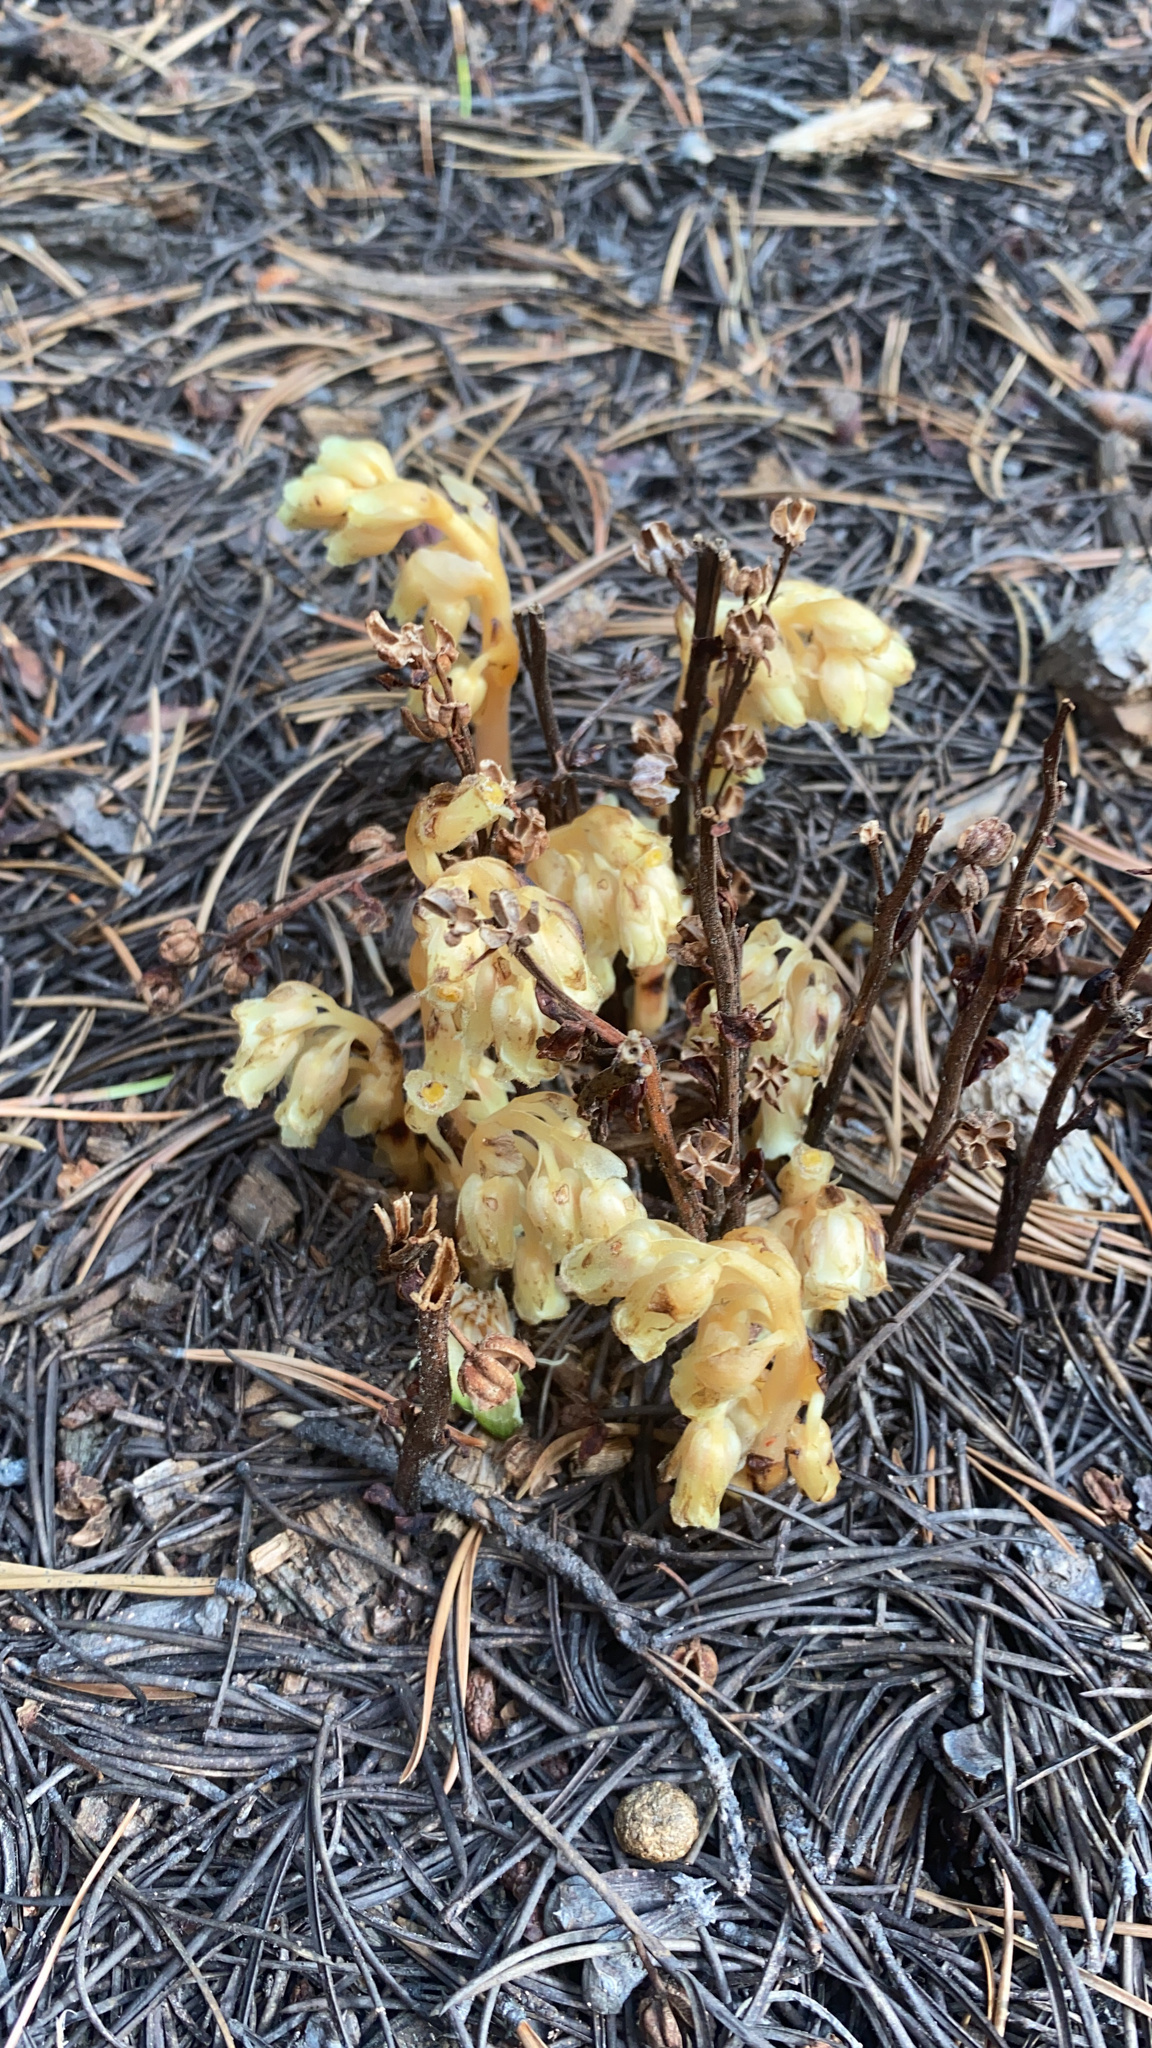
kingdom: Plantae
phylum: Tracheophyta
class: Magnoliopsida
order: Ericales
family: Ericaceae
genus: Hypopitys
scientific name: Hypopitys monotropa
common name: Yellow bird's-nest
